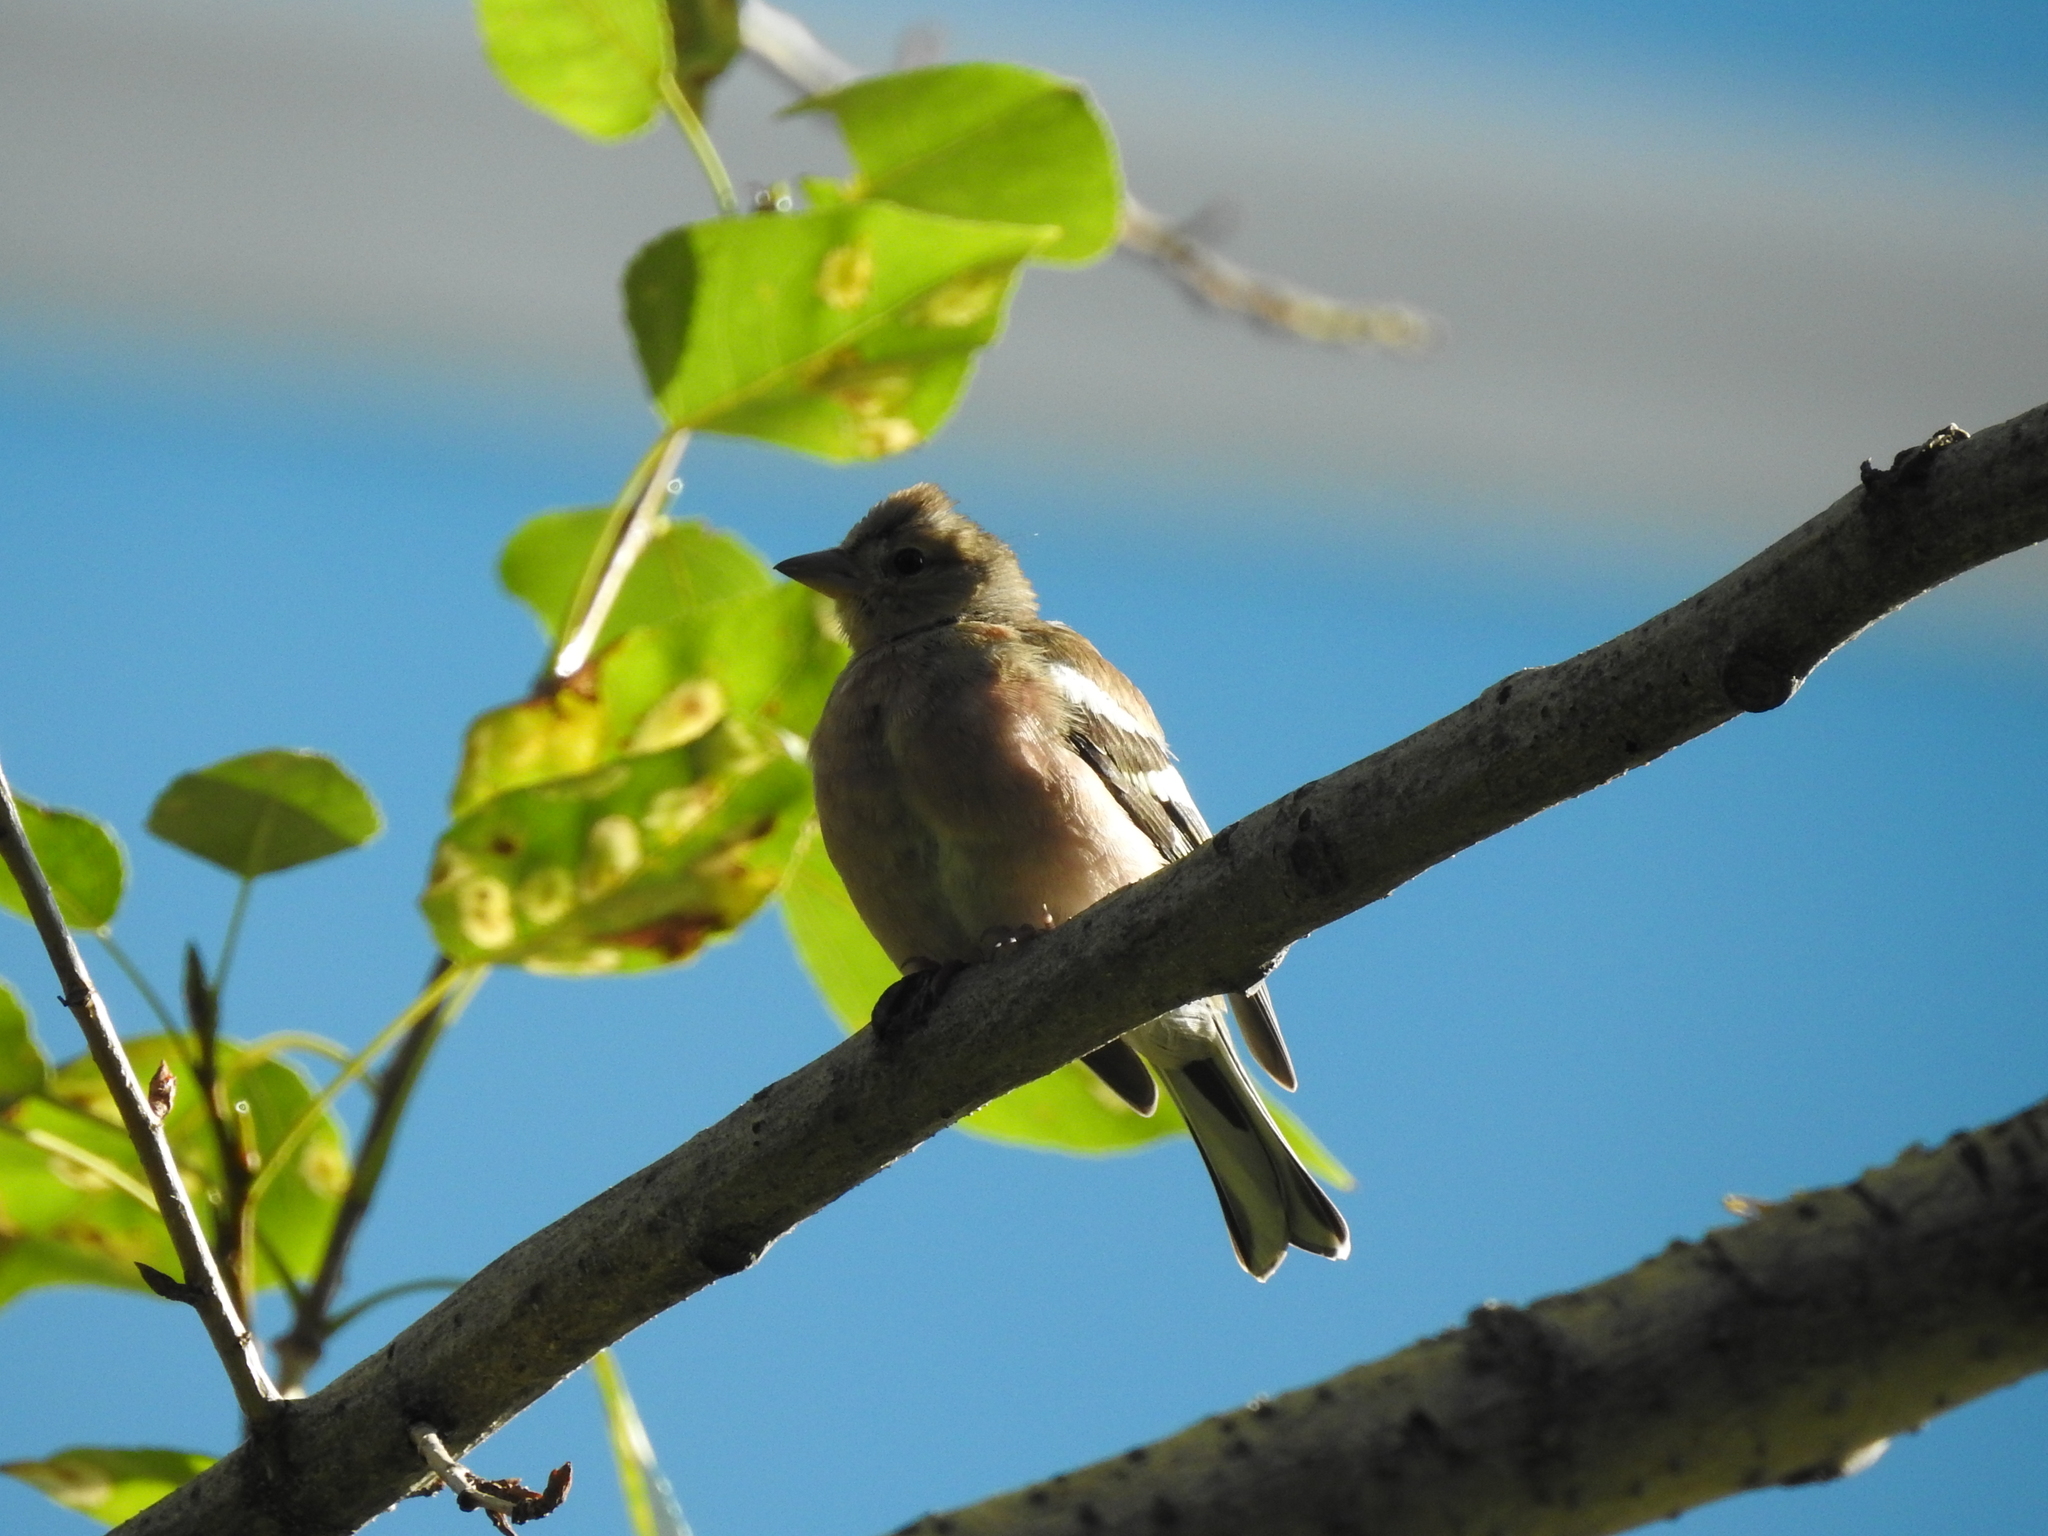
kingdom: Animalia
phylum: Chordata
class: Aves
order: Passeriformes
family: Fringillidae
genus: Fringilla
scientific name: Fringilla coelebs
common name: Common chaffinch
